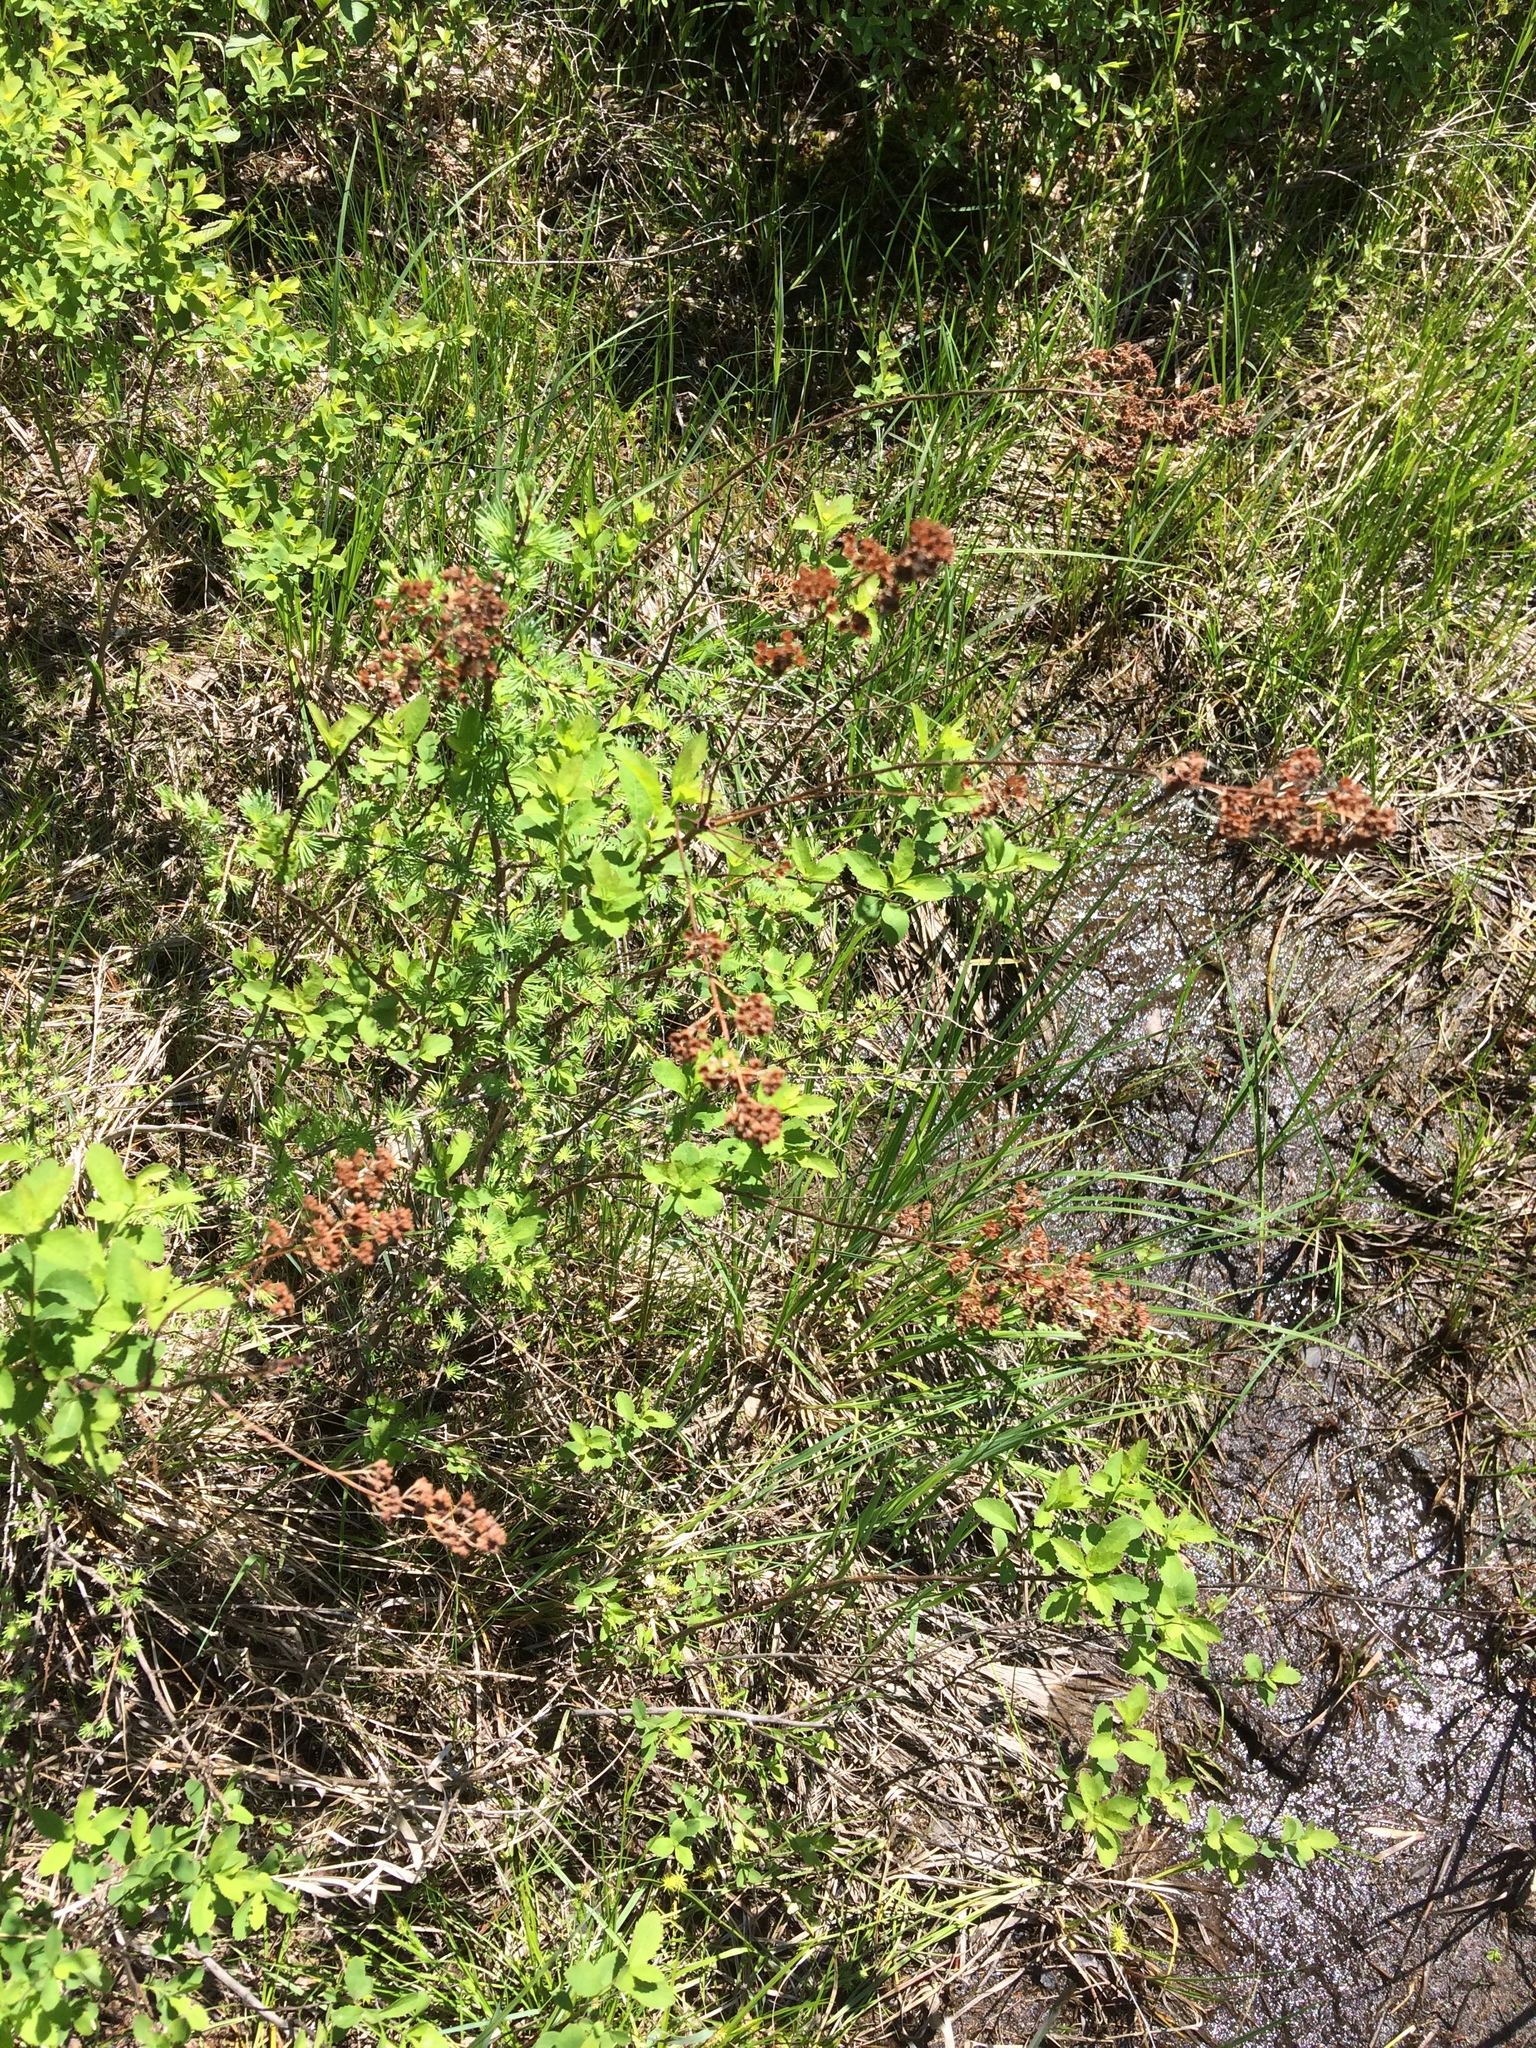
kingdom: Plantae
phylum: Tracheophyta
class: Magnoliopsida
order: Rosales
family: Rosaceae
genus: Spiraea
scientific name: Spiraea alba
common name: Pale bridewort
